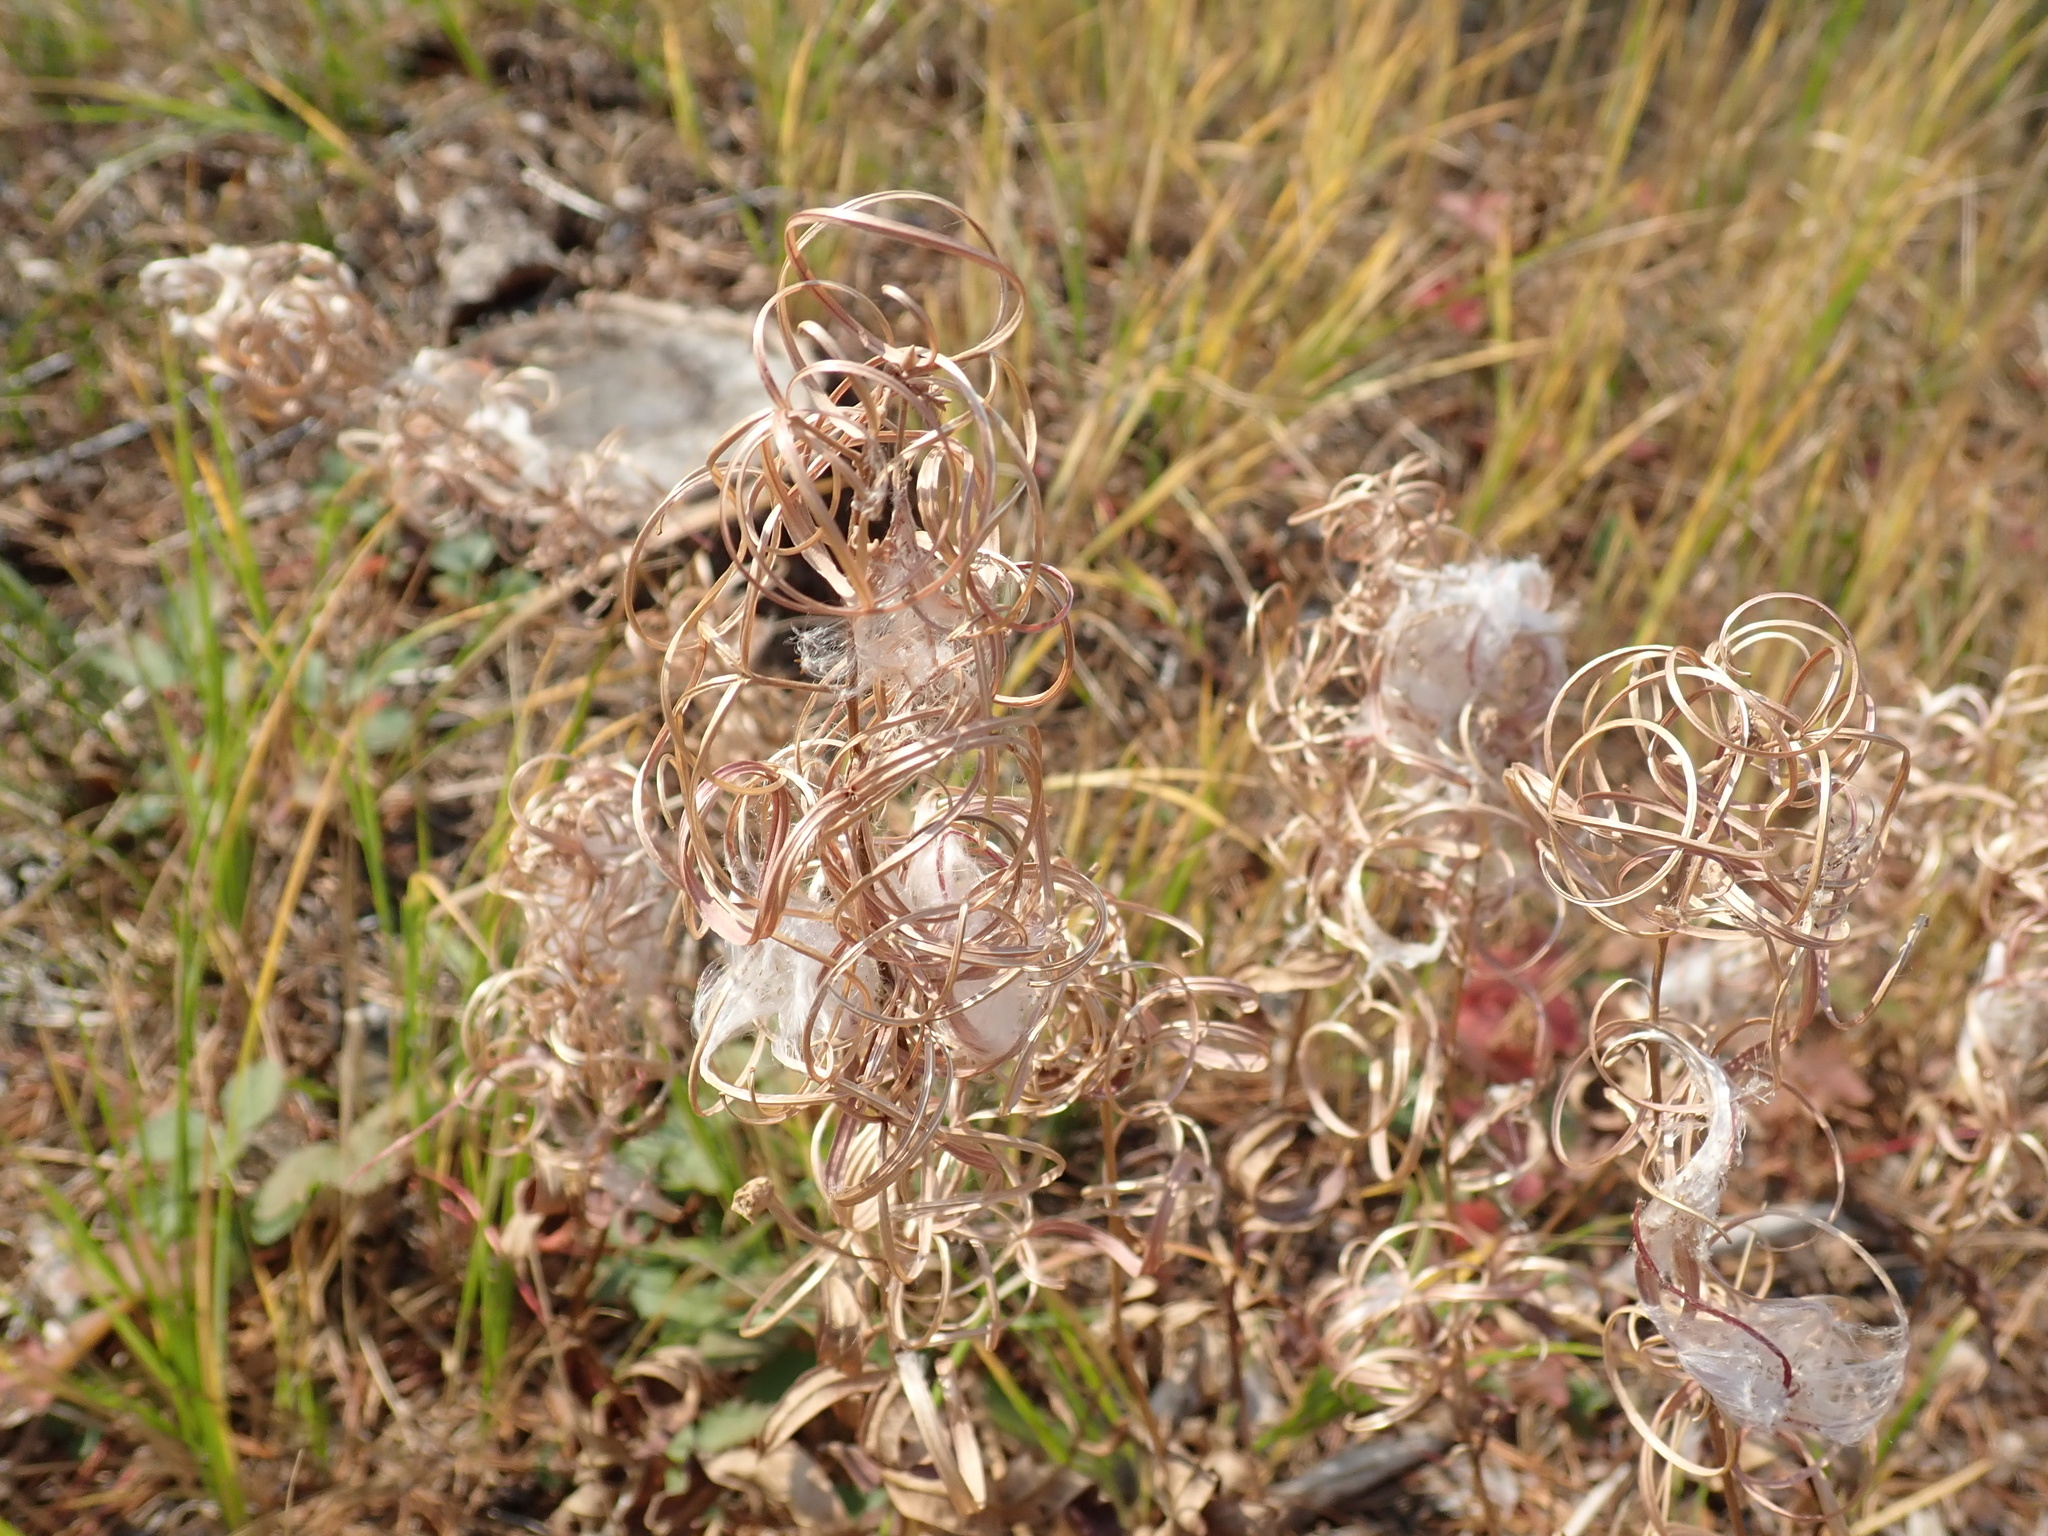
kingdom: Plantae
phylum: Tracheophyta
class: Magnoliopsida
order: Myrtales
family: Onagraceae
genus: Chamaenerion
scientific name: Chamaenerion angustifolium
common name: Fireweed
